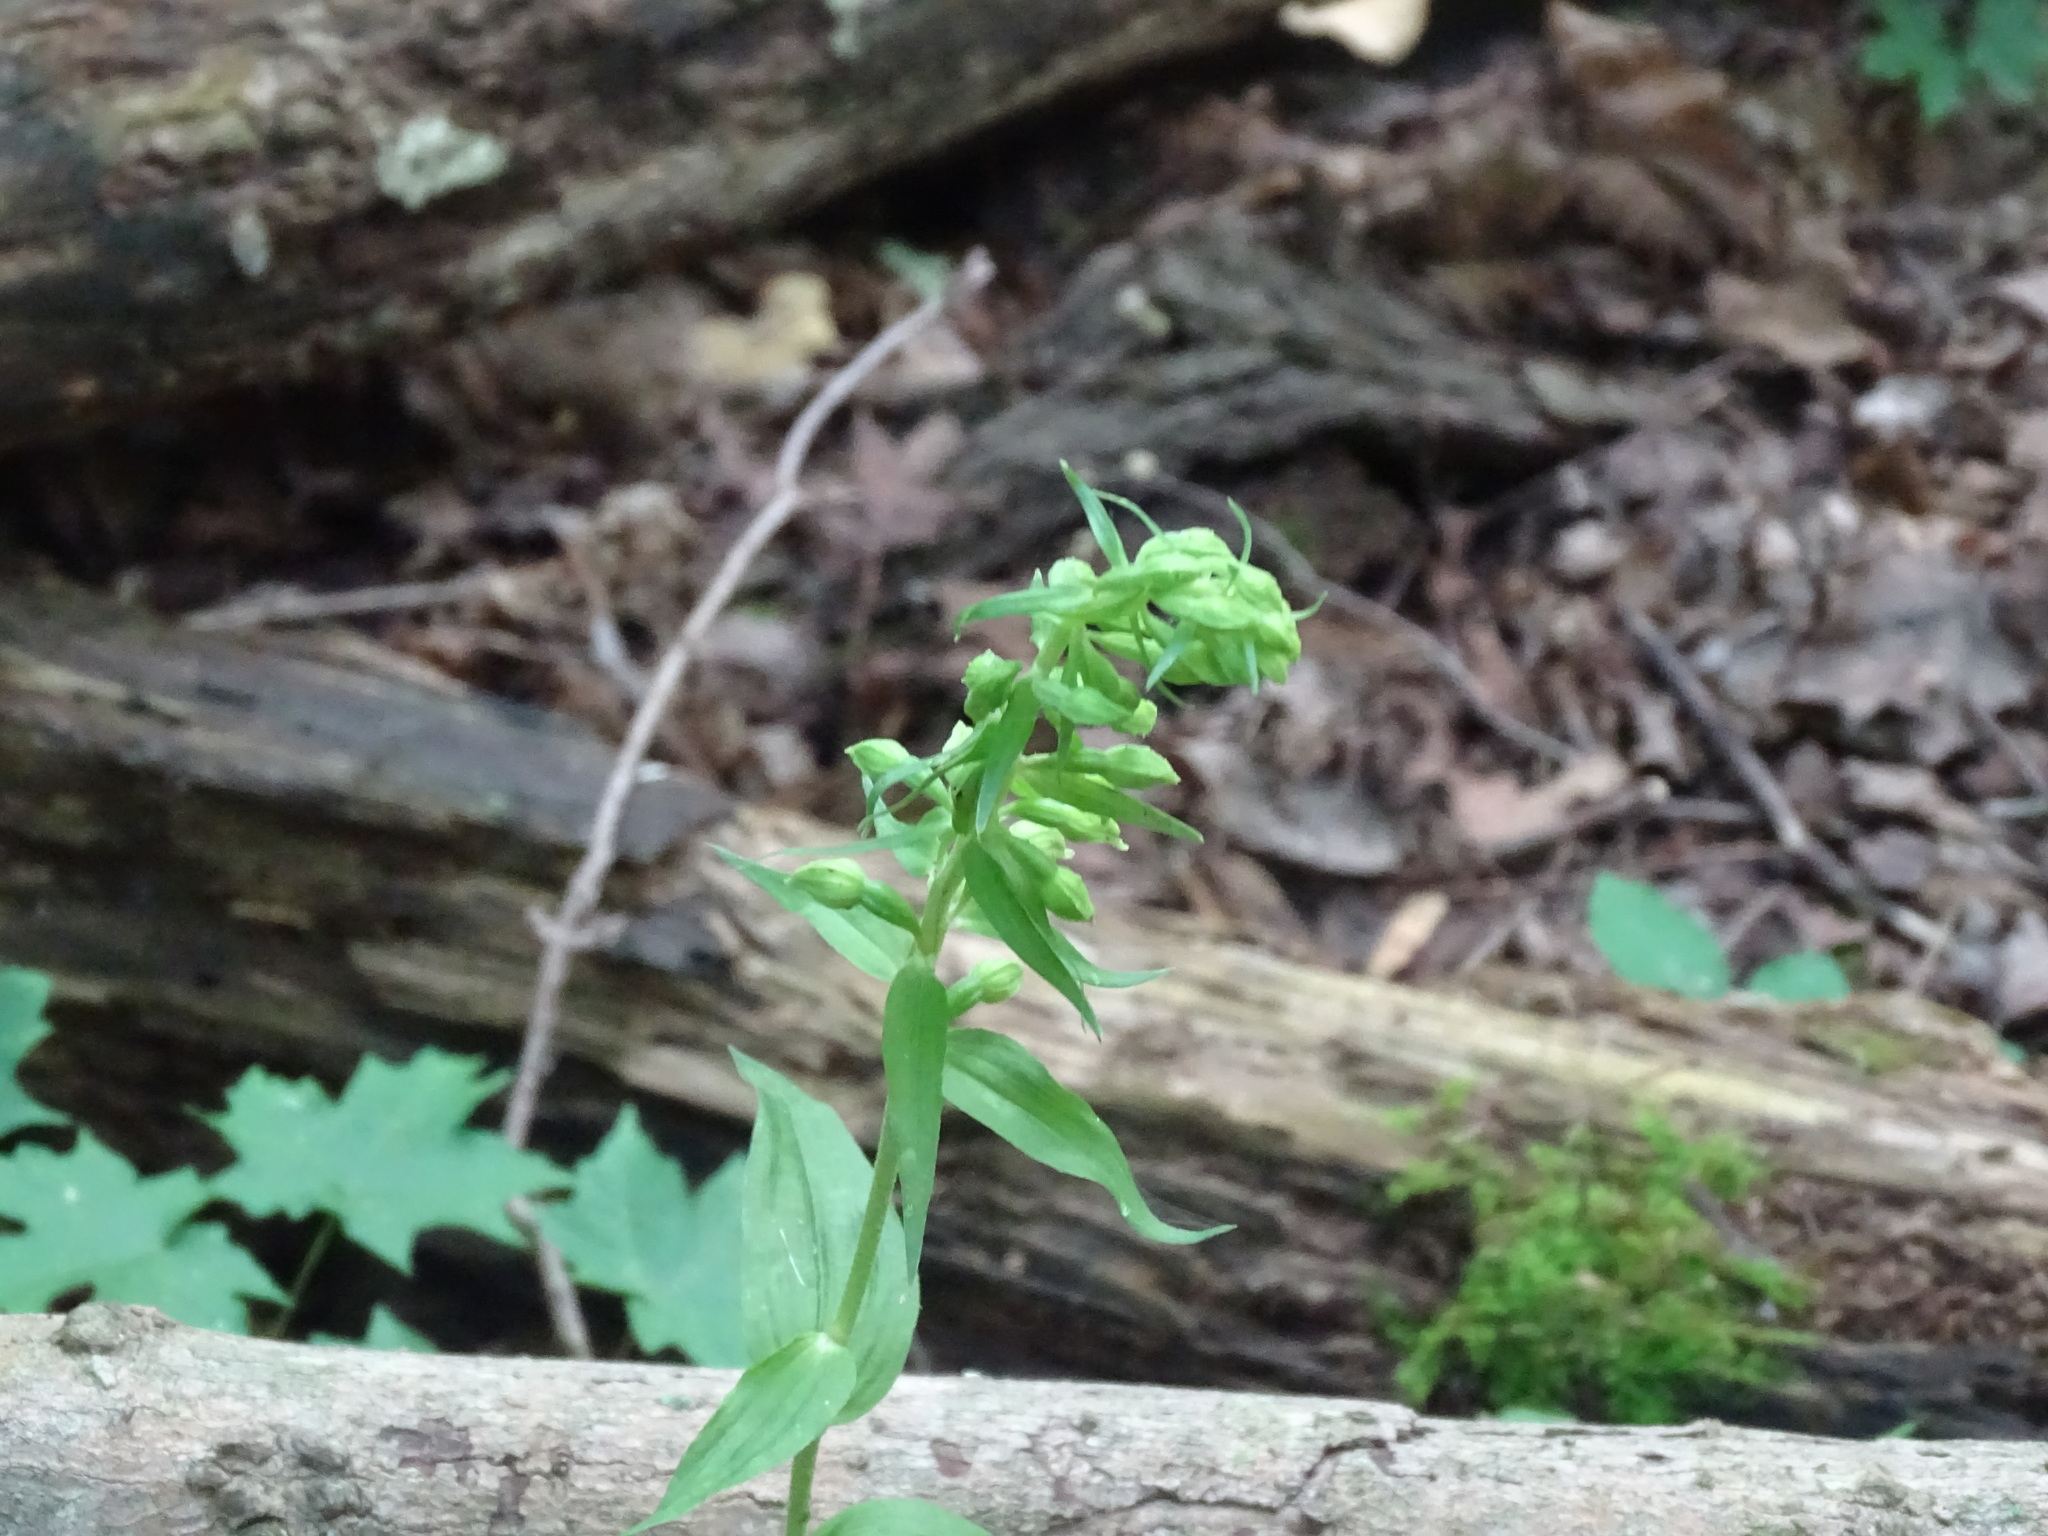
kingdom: Plantae
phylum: Tracheophyta
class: Liliopsida
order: Asparagales
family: Orchidaceae
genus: Epipactis
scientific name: Epipactis helleborine
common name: Broad-leaved helleborine
